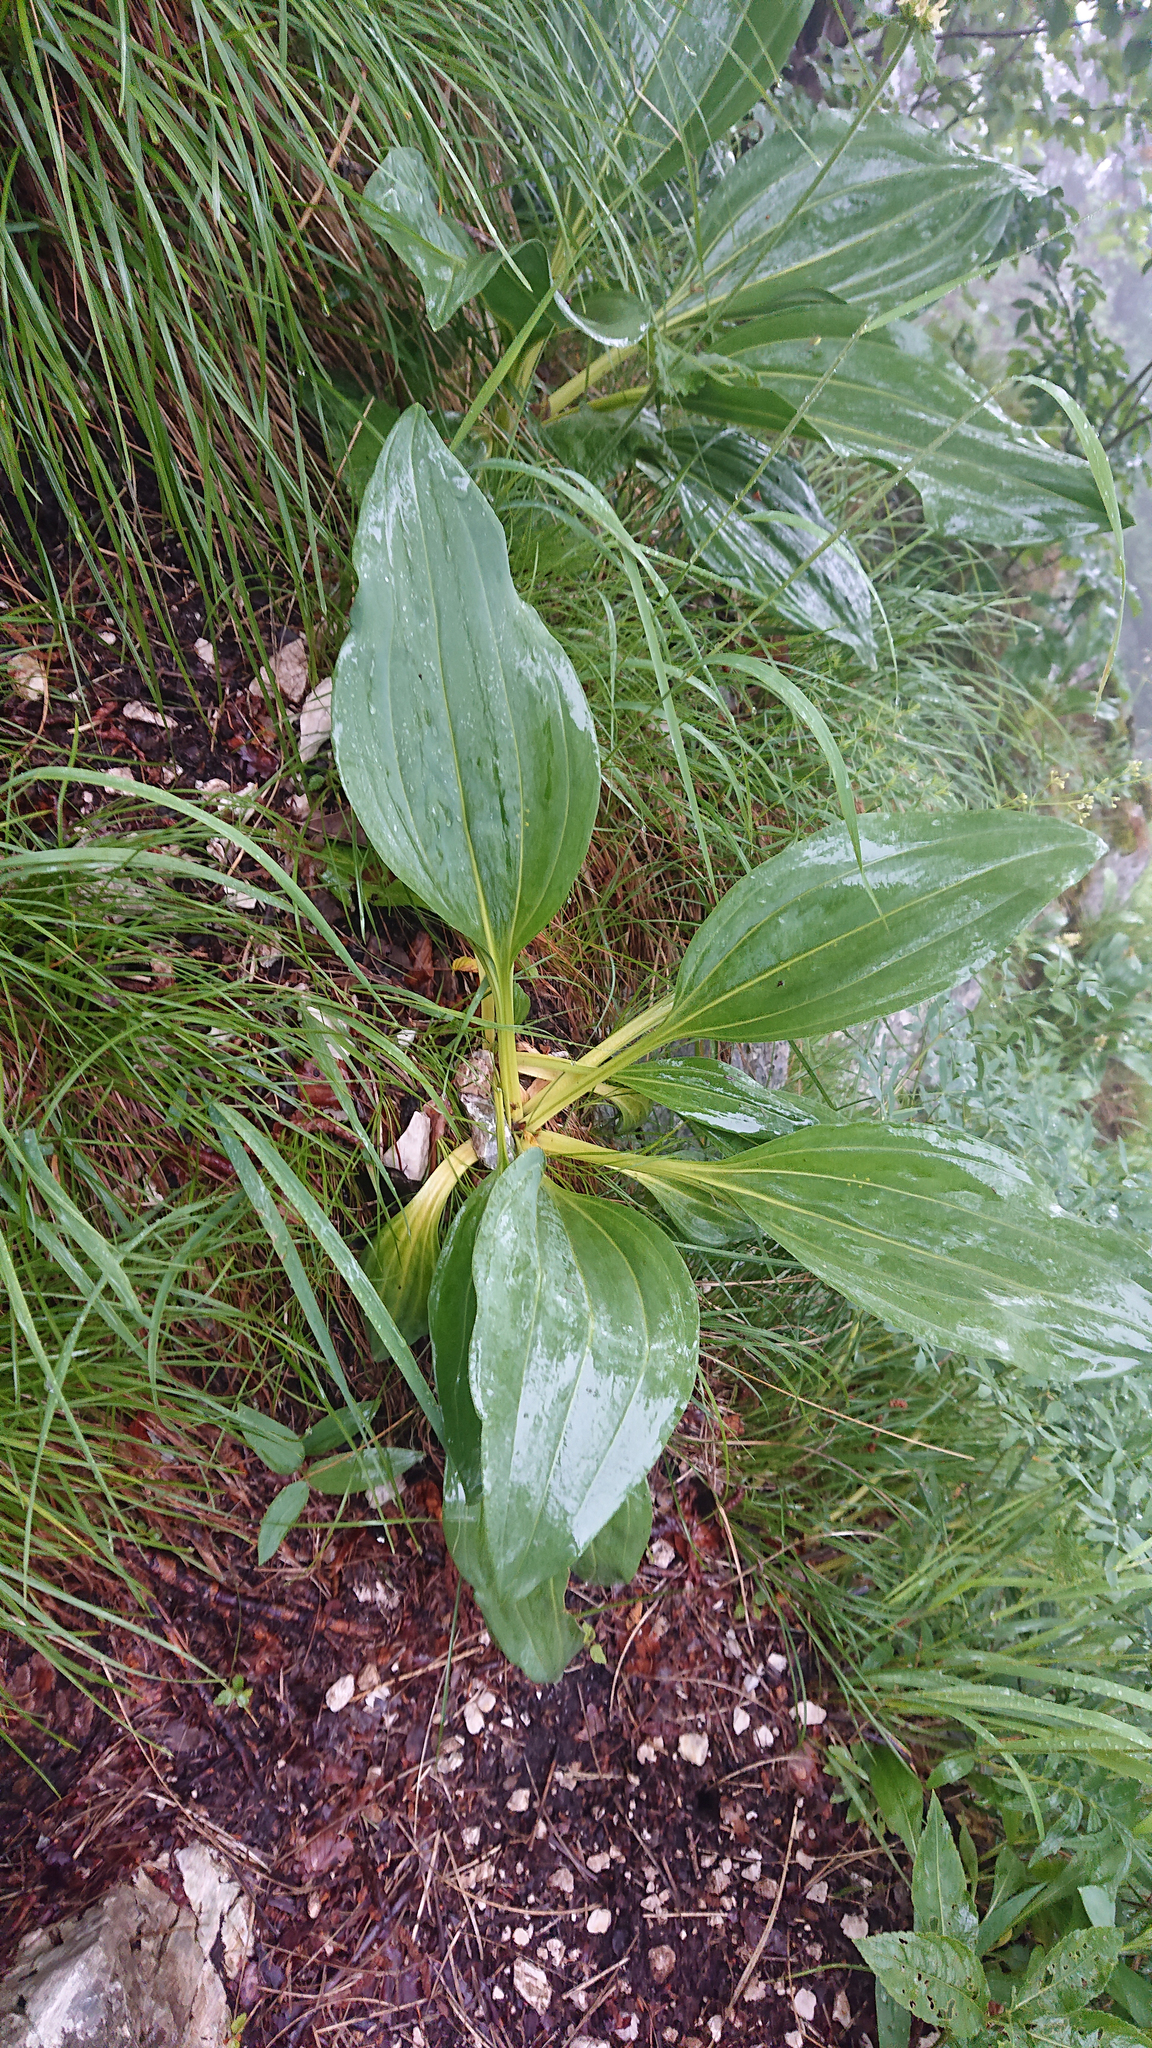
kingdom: Plantae
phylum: Tracheophyta
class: Magnoliopsida
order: Gentianales
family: Gentianaceae
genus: Gentiana
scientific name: Gentiana lutea
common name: Great yellow gentian
